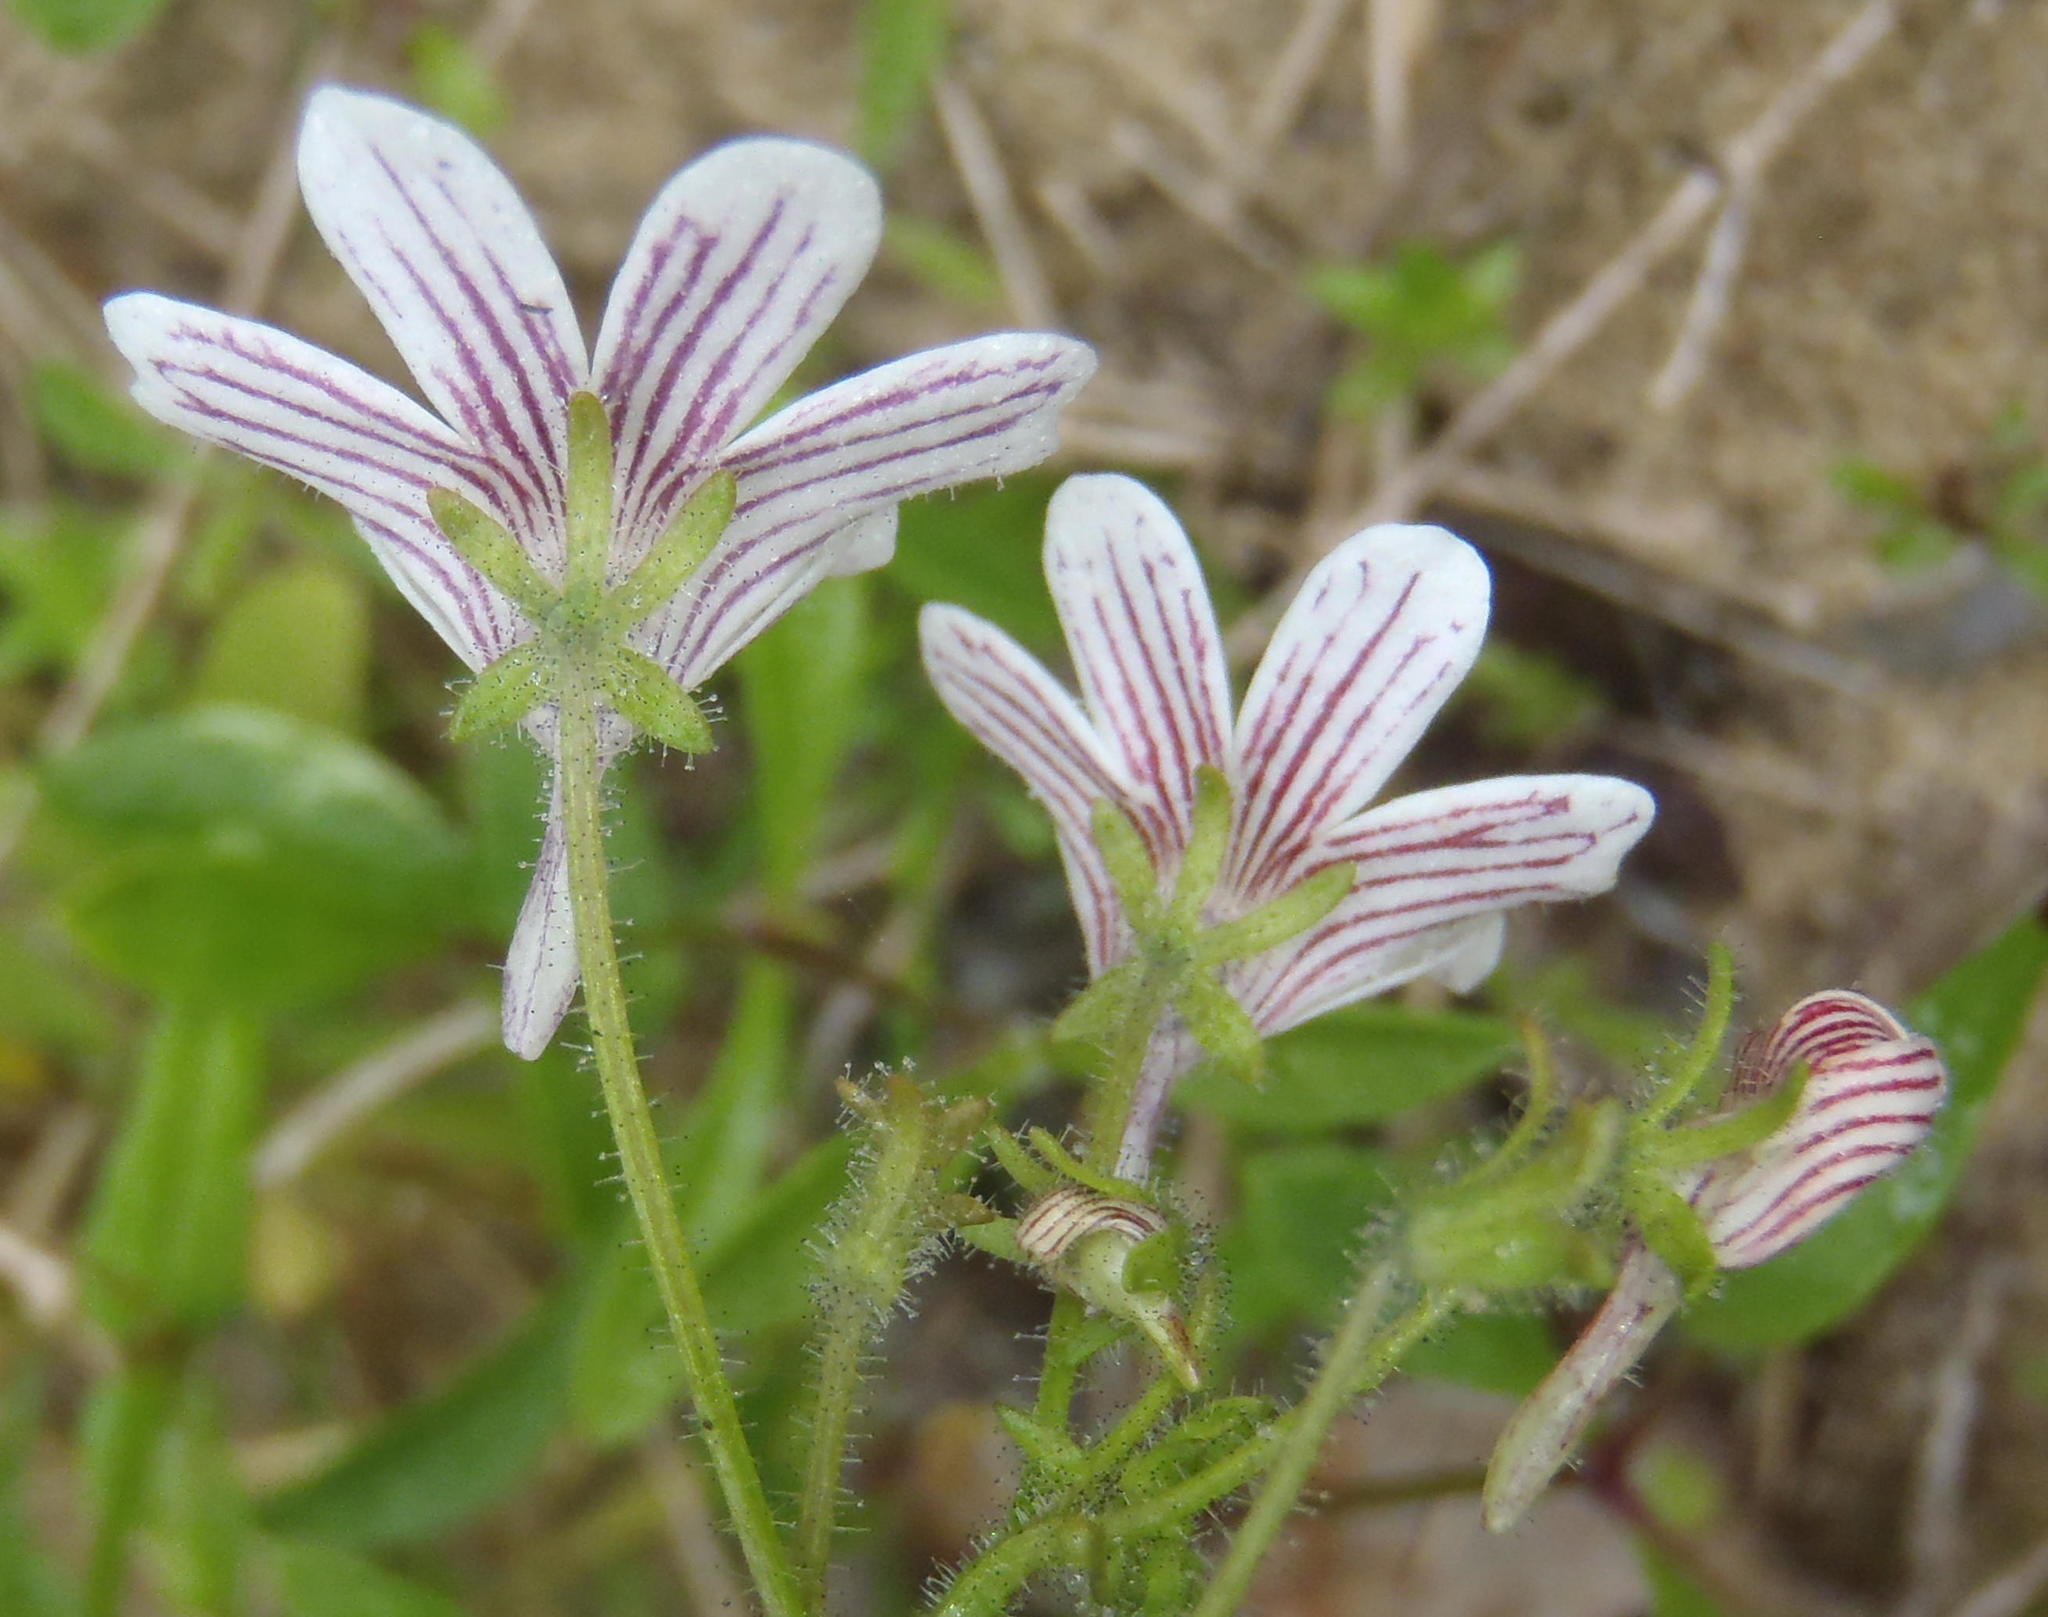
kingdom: Plantae
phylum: Tracheophyta
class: Magnoliopsida
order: Lamiales
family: Scrophulariaceae
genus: Nemesia
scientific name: Nemesia bicornis
